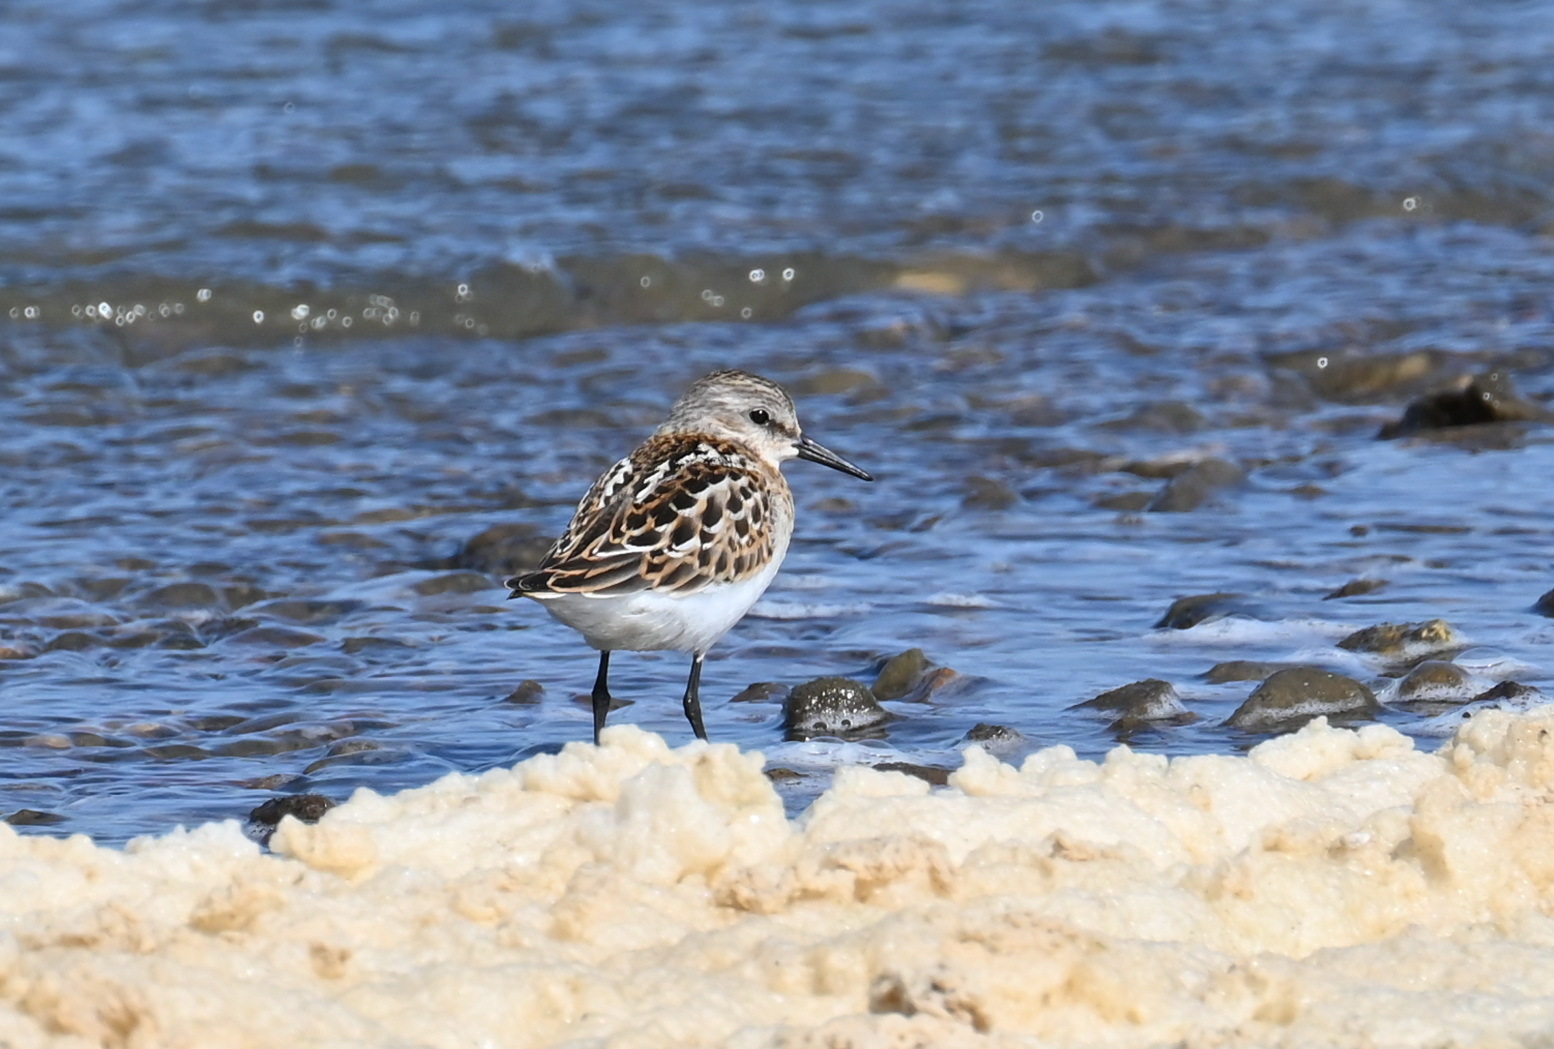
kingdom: Animalia
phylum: Chordata
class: Aves
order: Charadriiformes
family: Scolopacidae
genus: Calidris
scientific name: Calidris minuta
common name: Little stint
